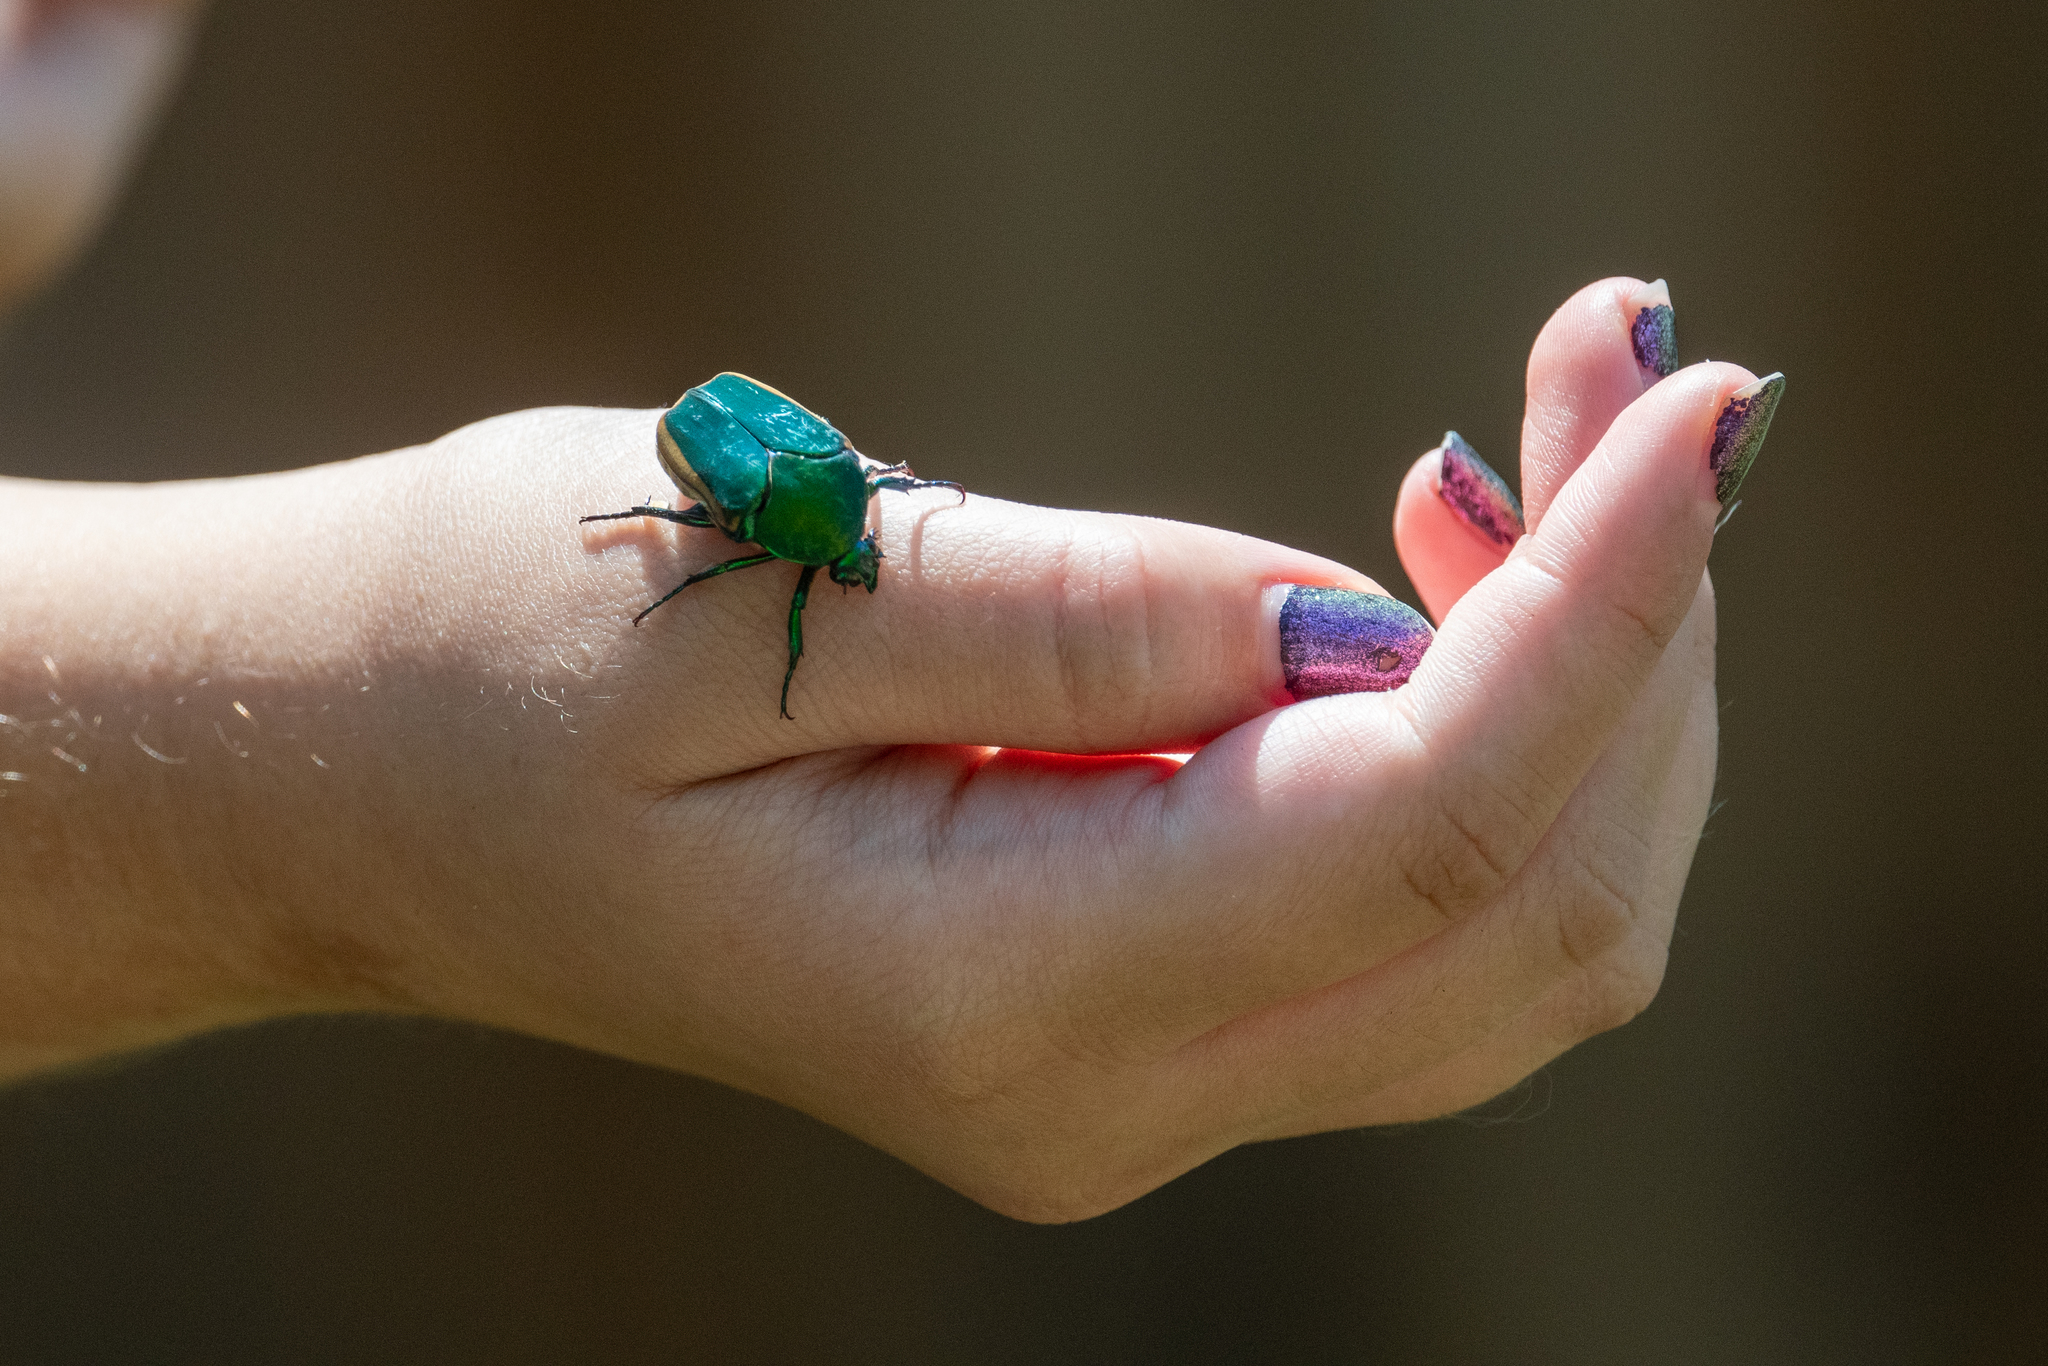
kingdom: Animalia
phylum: Arthropoda
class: Insecta
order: Coleoptera
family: Scarabaeidae
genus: Cotinis
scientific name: Cotinis mutabilis
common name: Figeater beetle
